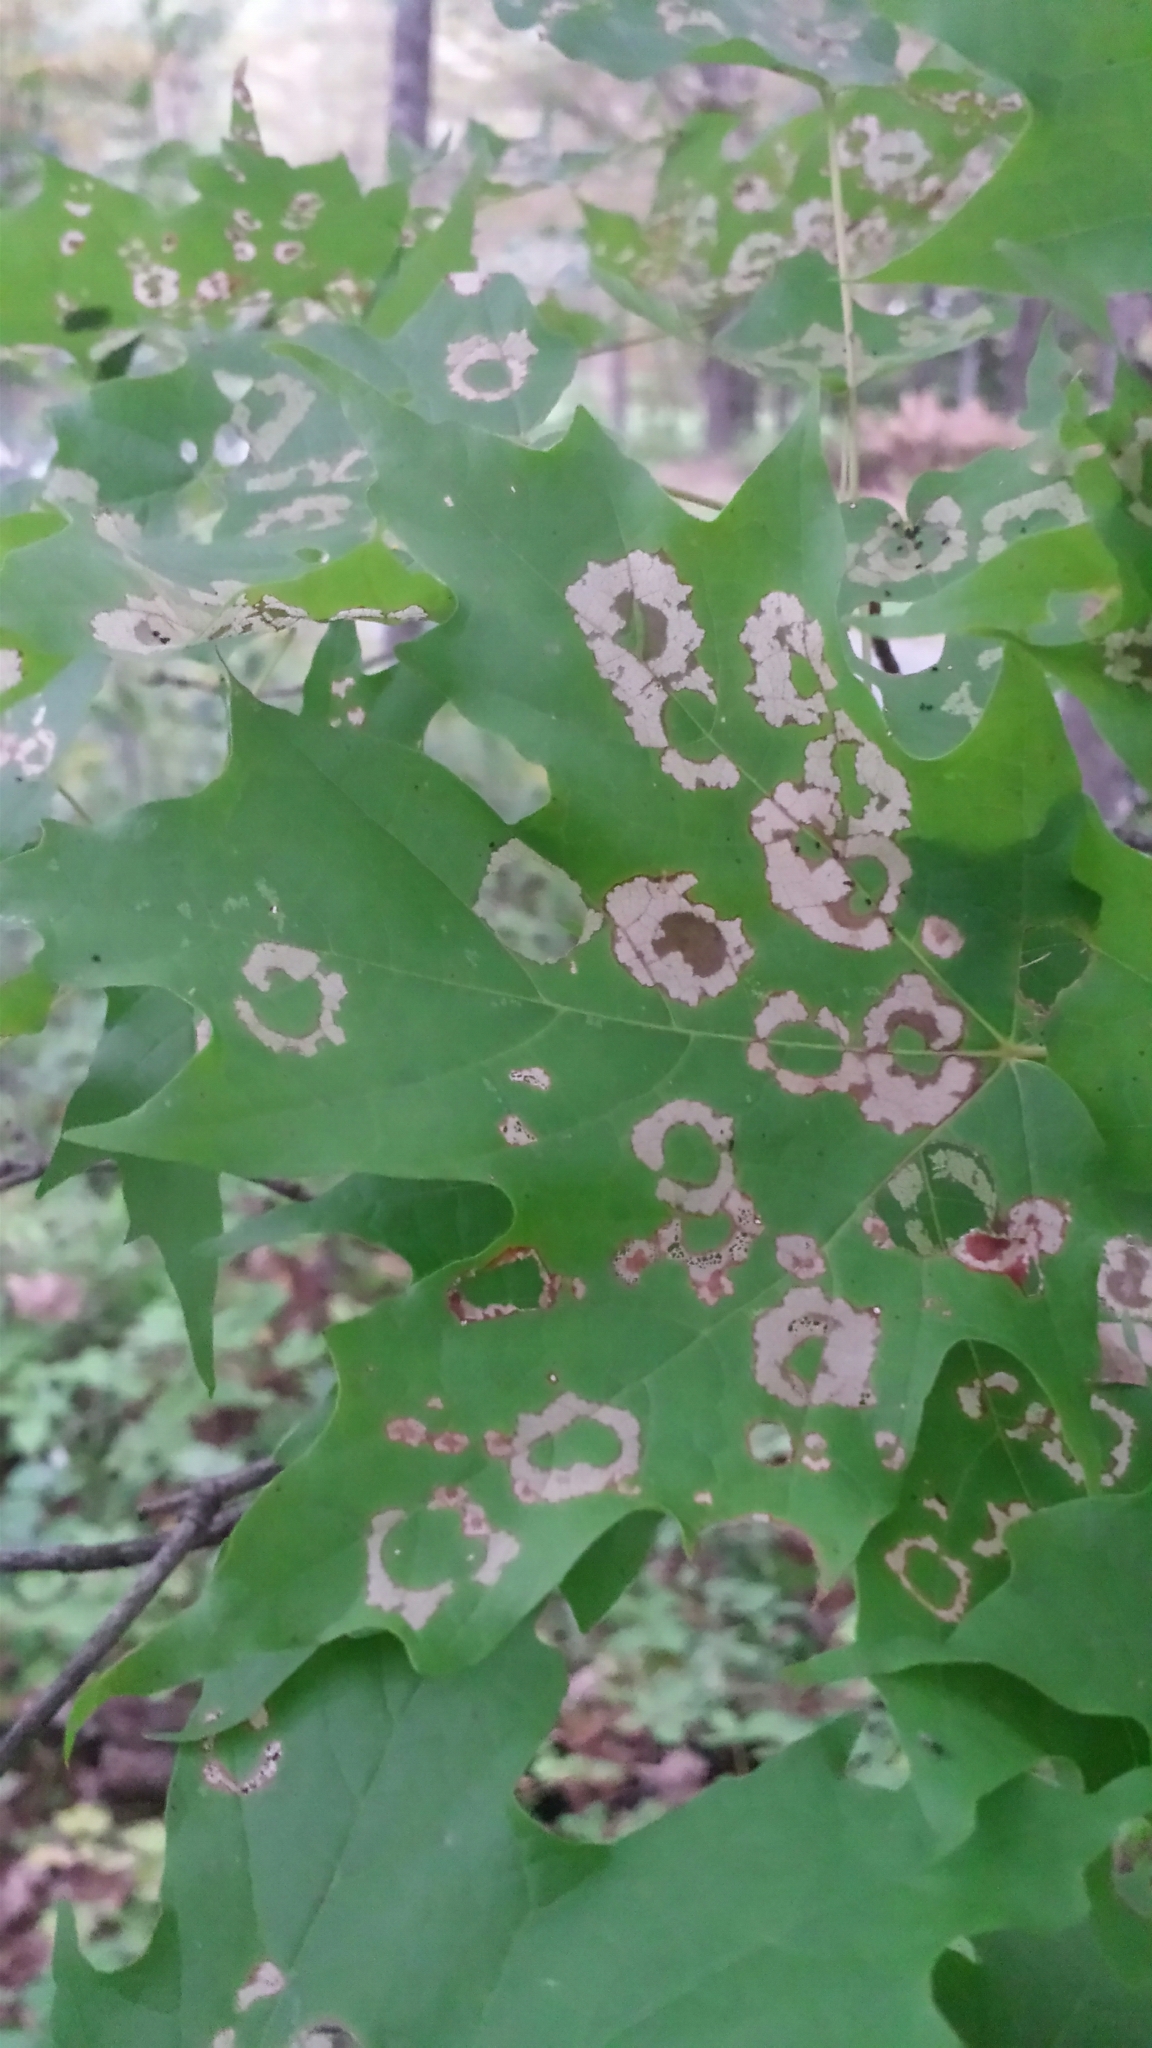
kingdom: Animalia
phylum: Arthropoda
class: Insecta
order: Lepidoptera
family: Incurvariidae
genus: Paraclemensia
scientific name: Paraclemensia acerifoliella
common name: Maple leafcutter
